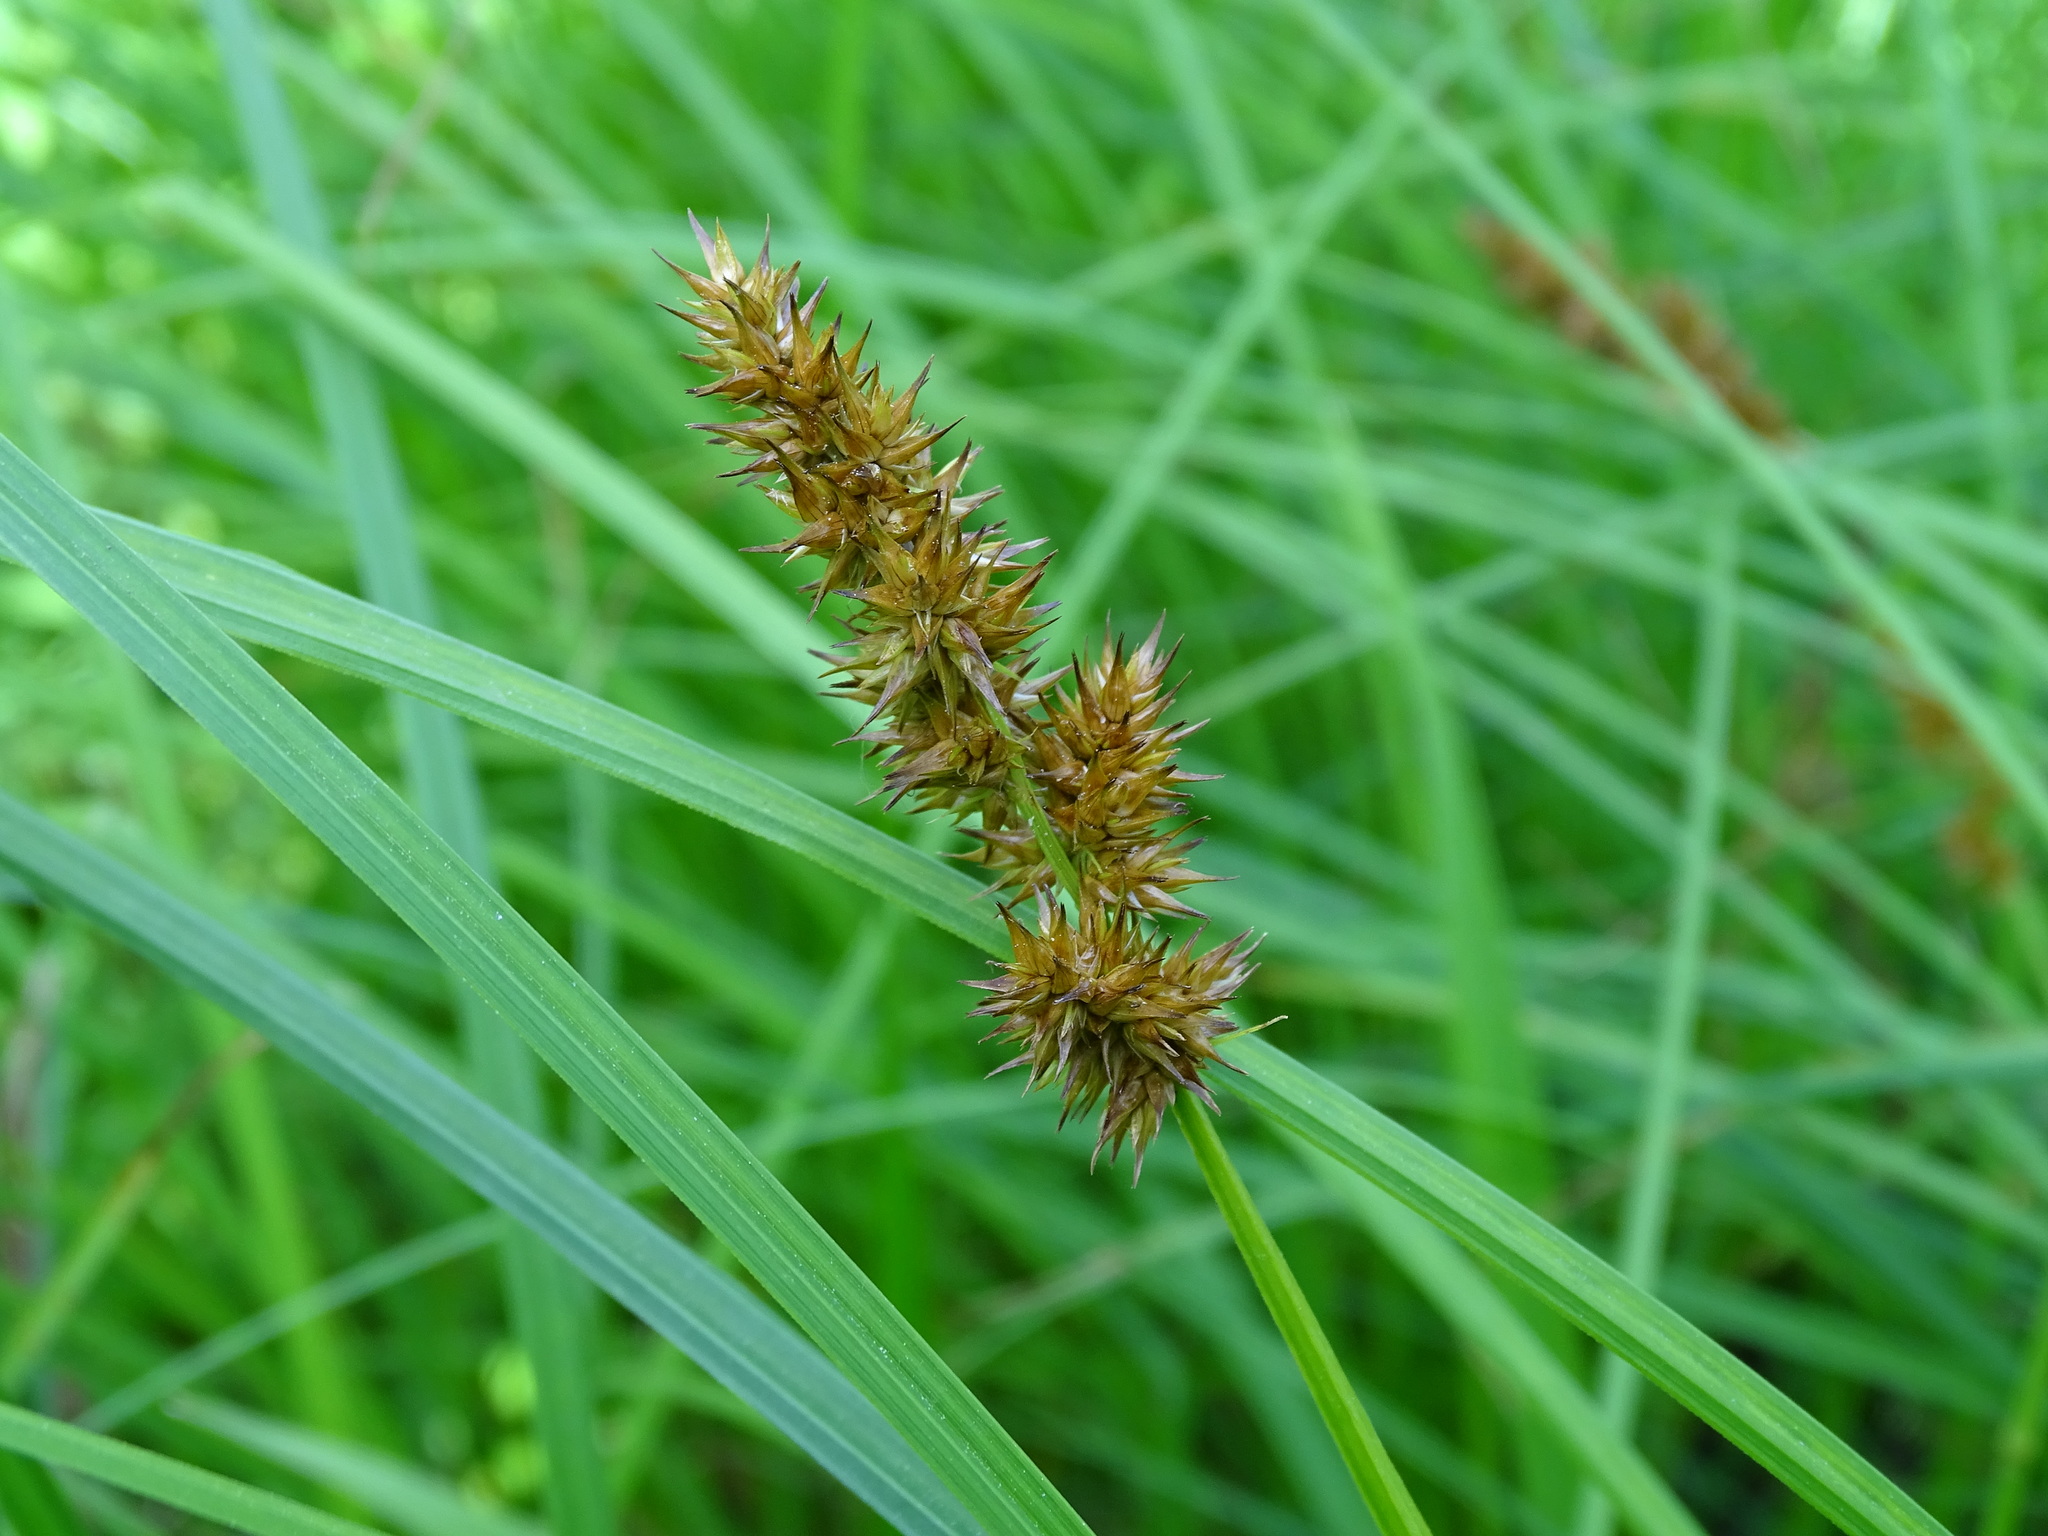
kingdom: Plantae
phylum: Tracheophyta
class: Liliopsida
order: Poales
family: Cyperaceae
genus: Carex
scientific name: Carex stipata
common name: Awl-fruited sedge
